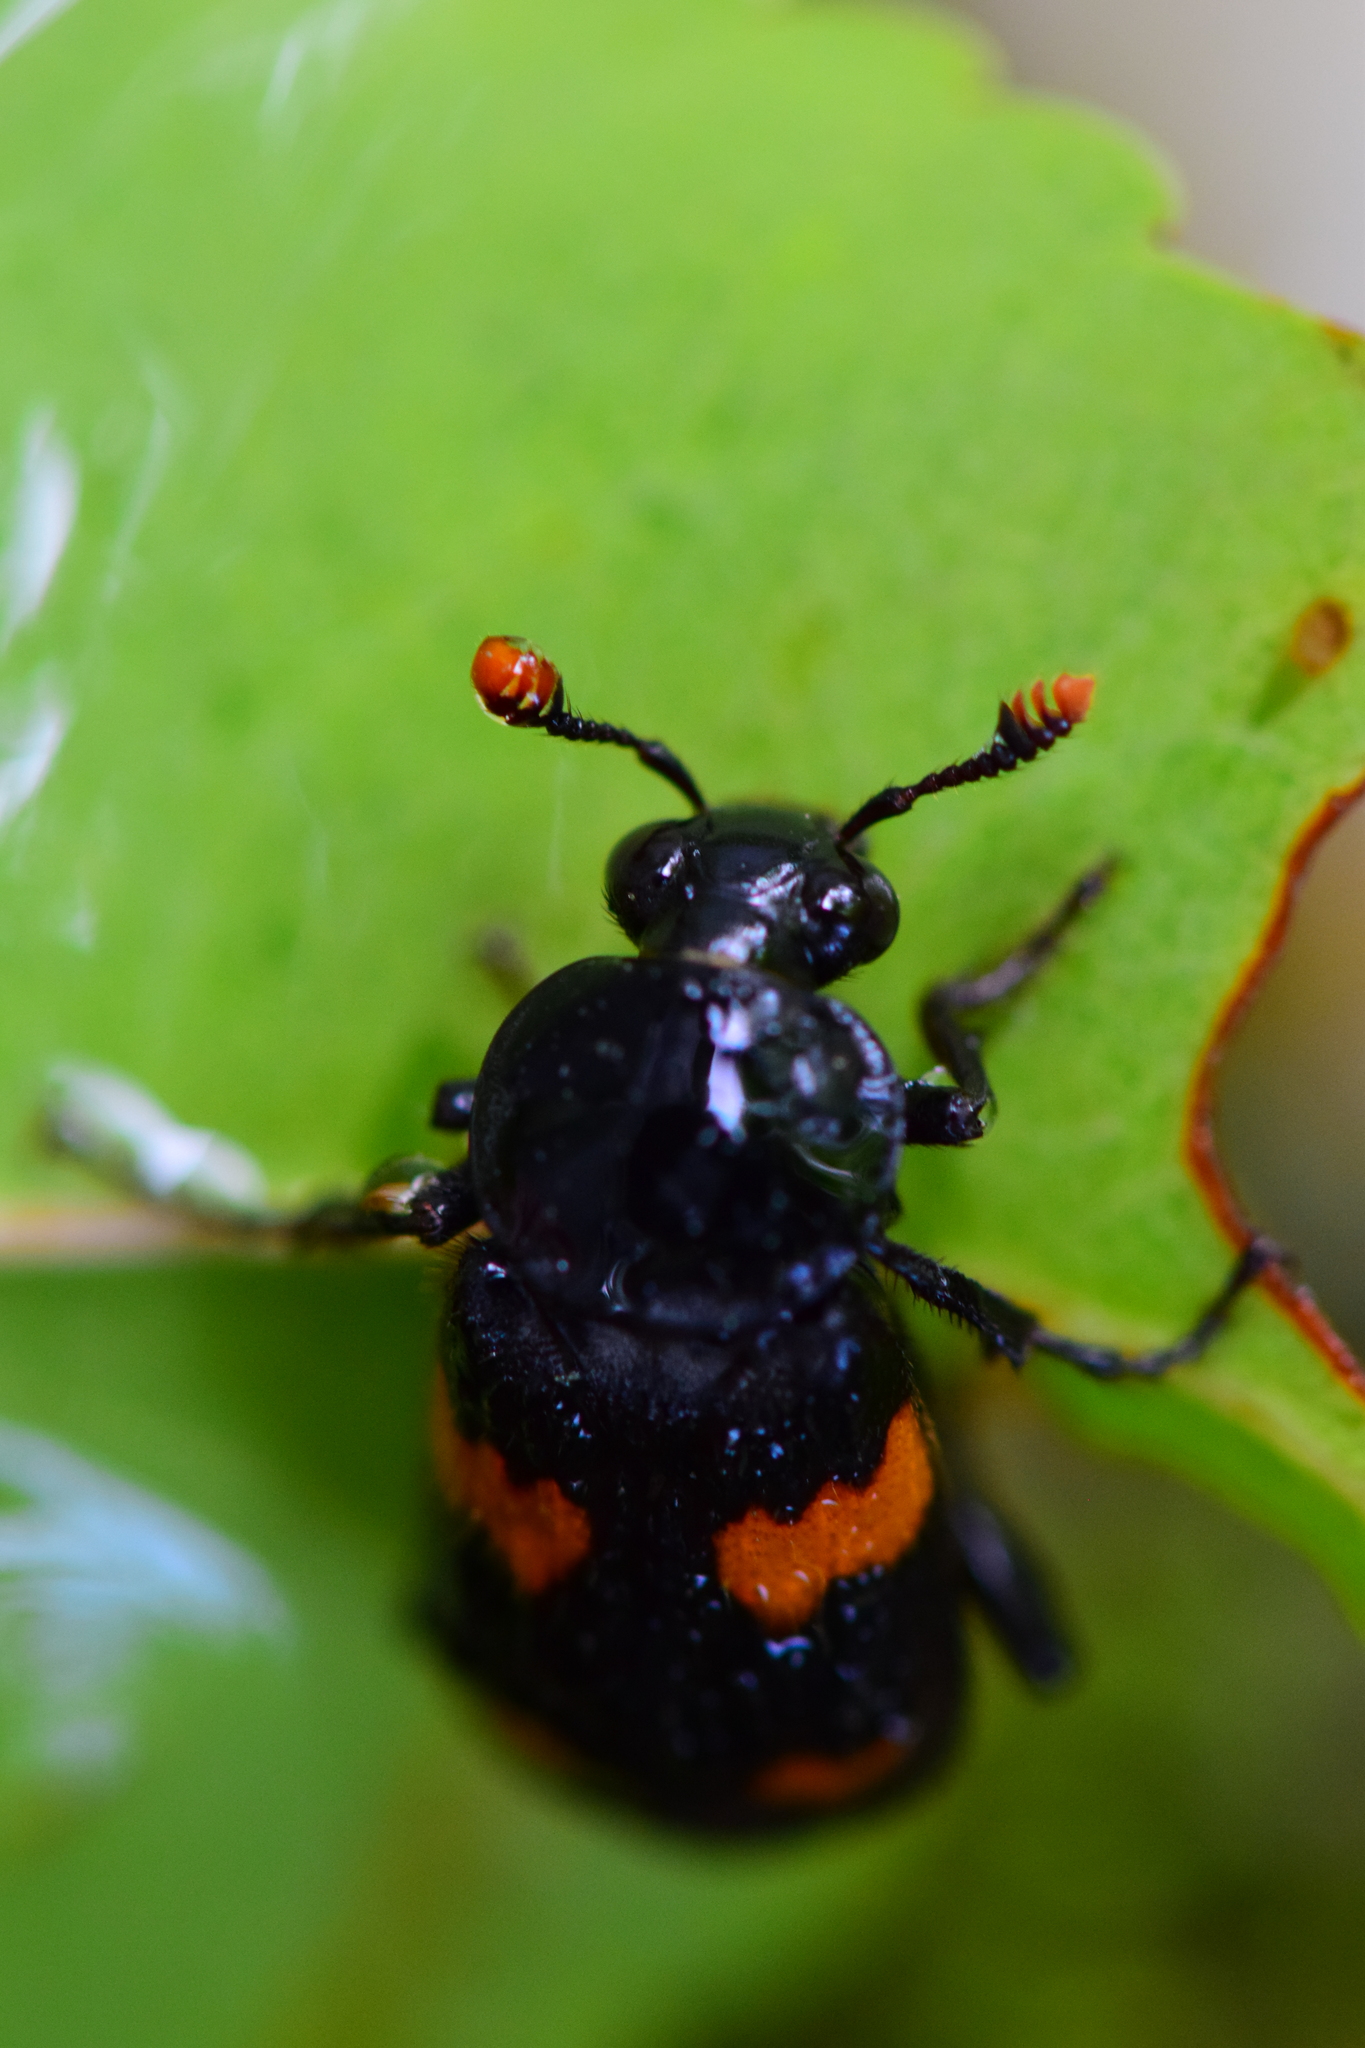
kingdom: Animalia
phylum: Arthropoda
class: Insecta
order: Coleoptera
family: Staphylinidae
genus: Nicrophorus
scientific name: Nicrophorus orbicollis
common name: Roundneck sexton beetle
